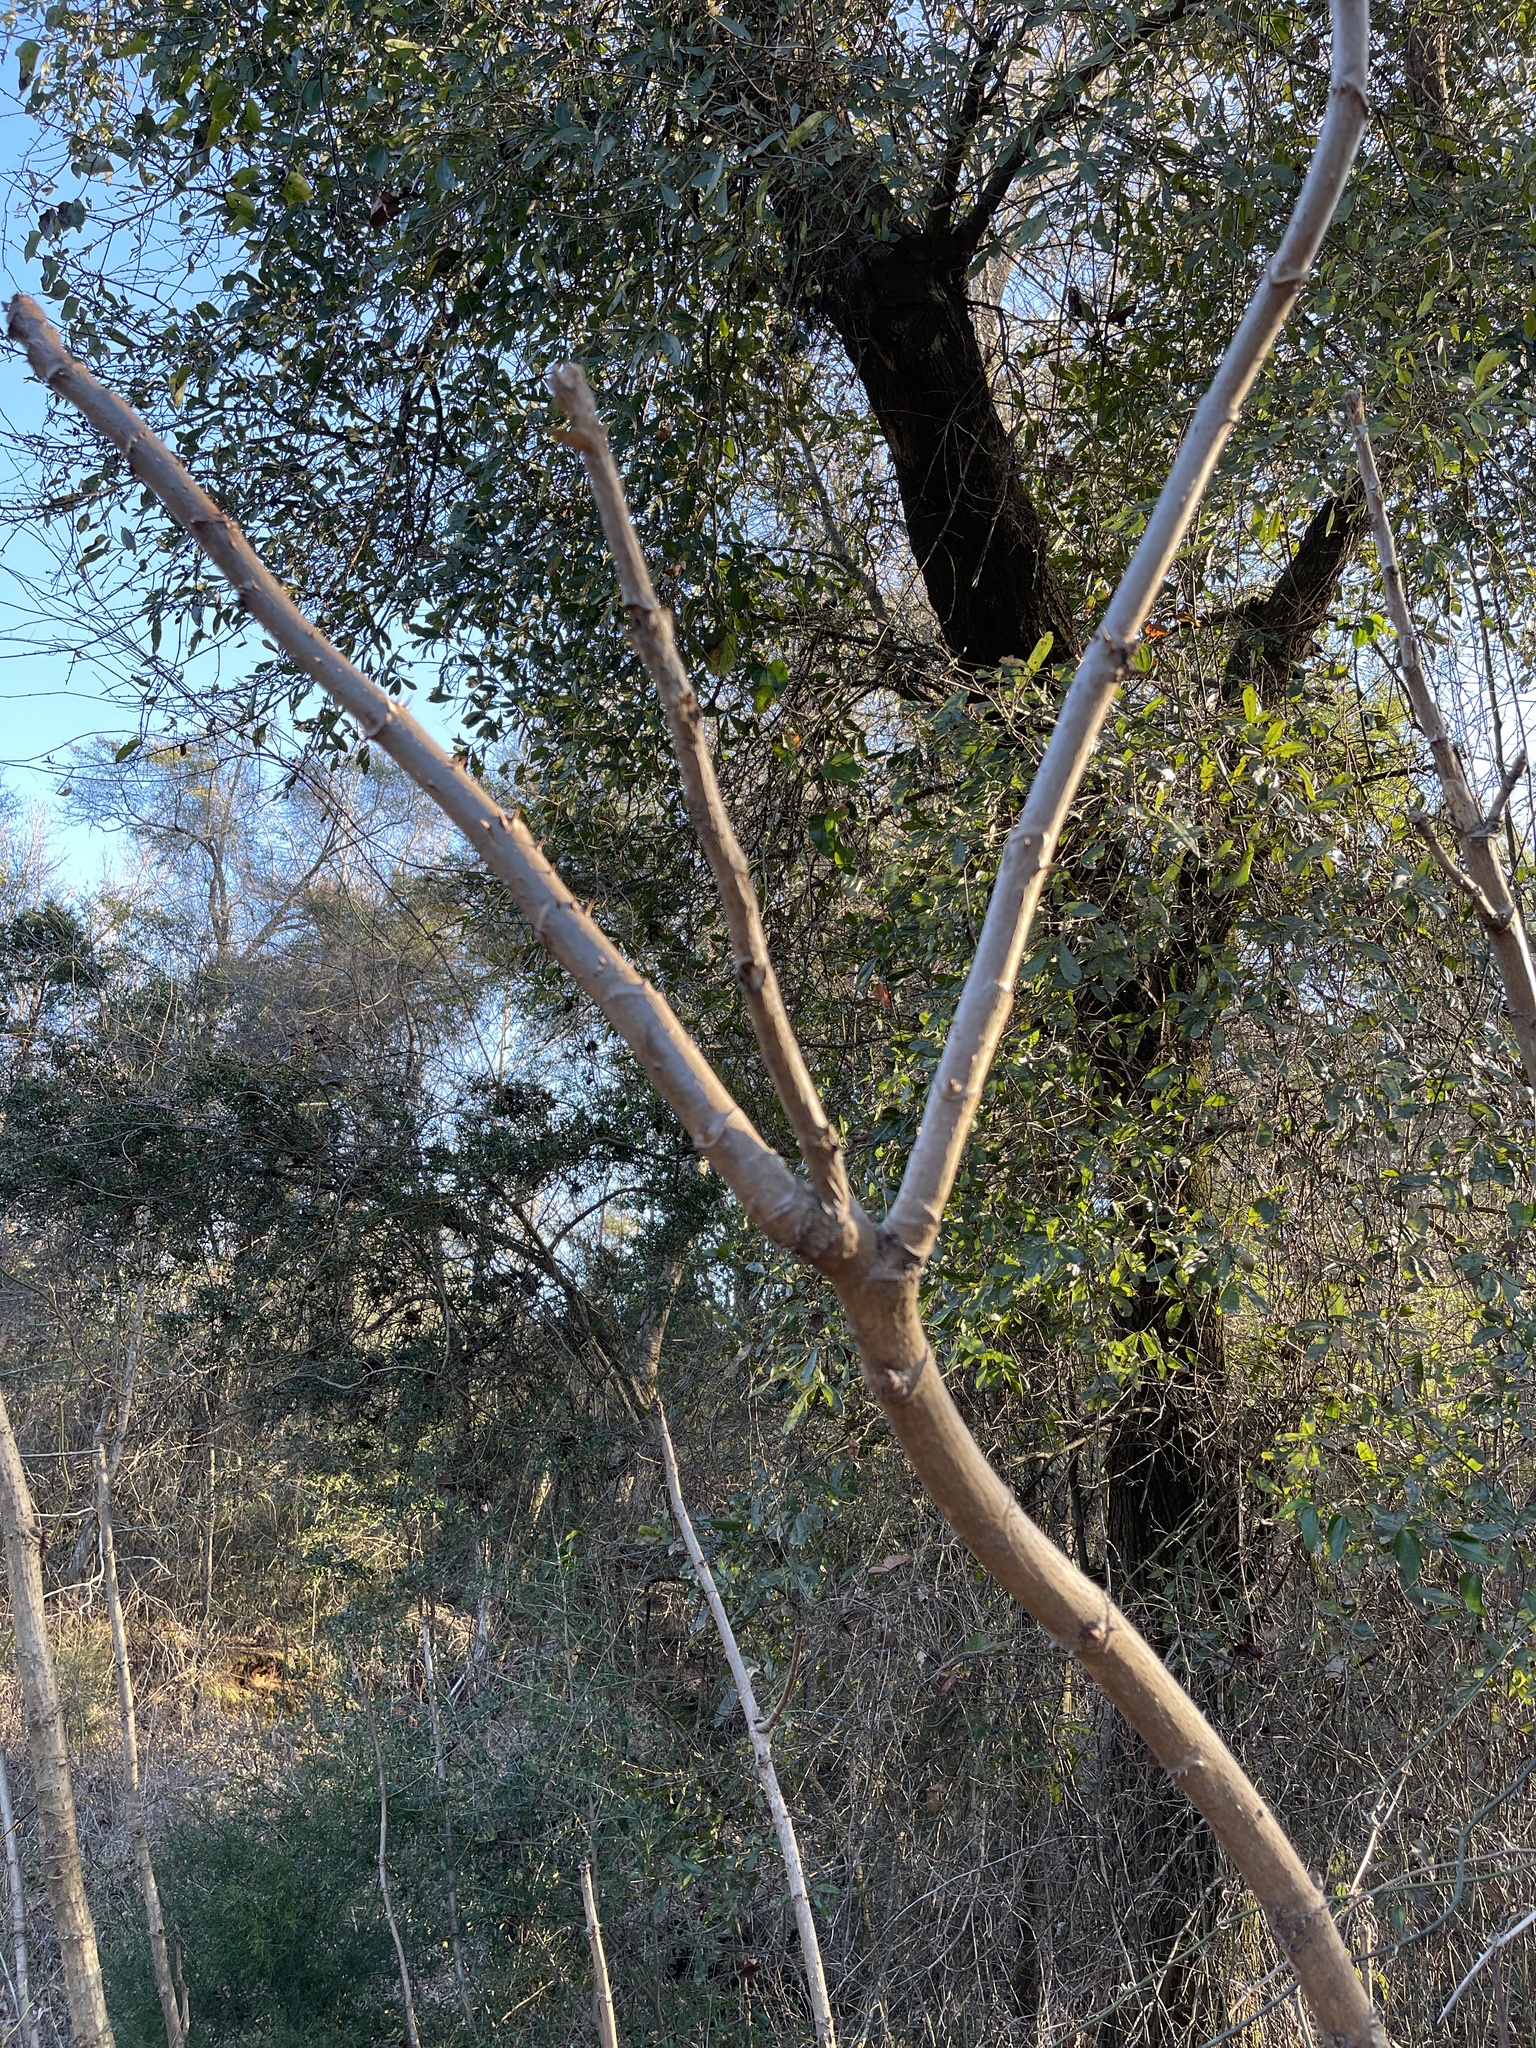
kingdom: Plantae
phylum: Tracheophyta
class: Magnoliopsida
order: Apiales
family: Araliaceae
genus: Aralia
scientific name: Aralia spinosa
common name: Hercules'-club
